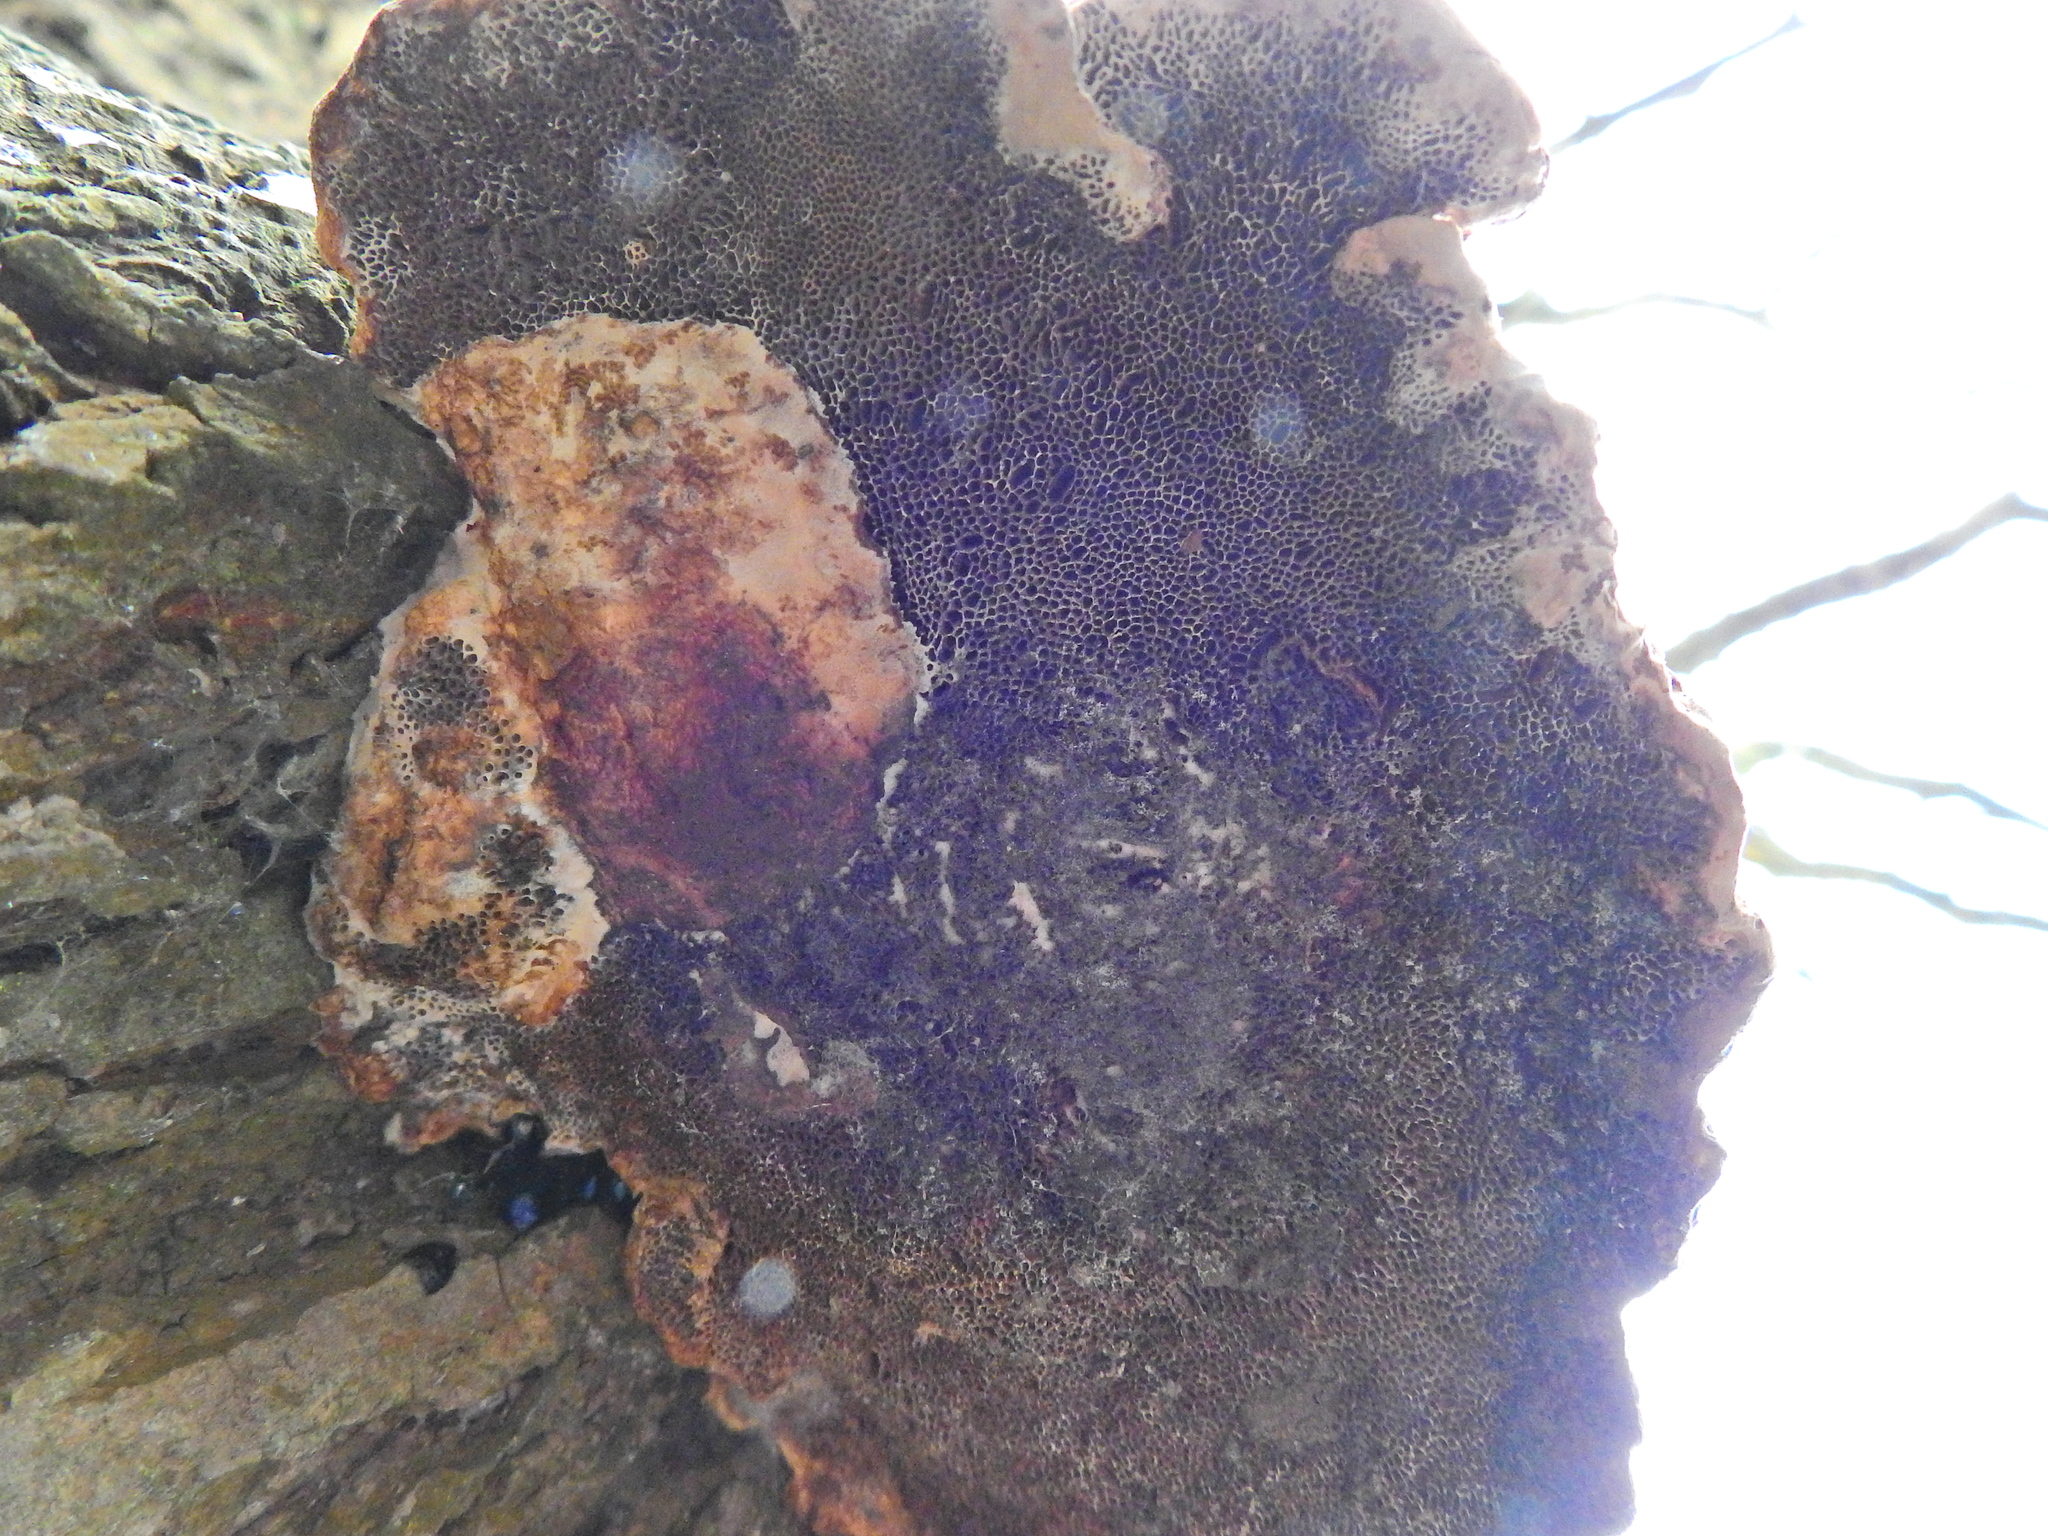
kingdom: Fungi
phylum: Basidiomycota
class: Agaricomycetes
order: Polyporales
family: Polyporaceae
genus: Daedaleopsis
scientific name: Daedaleopsis confragosa
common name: Blushing bracket
